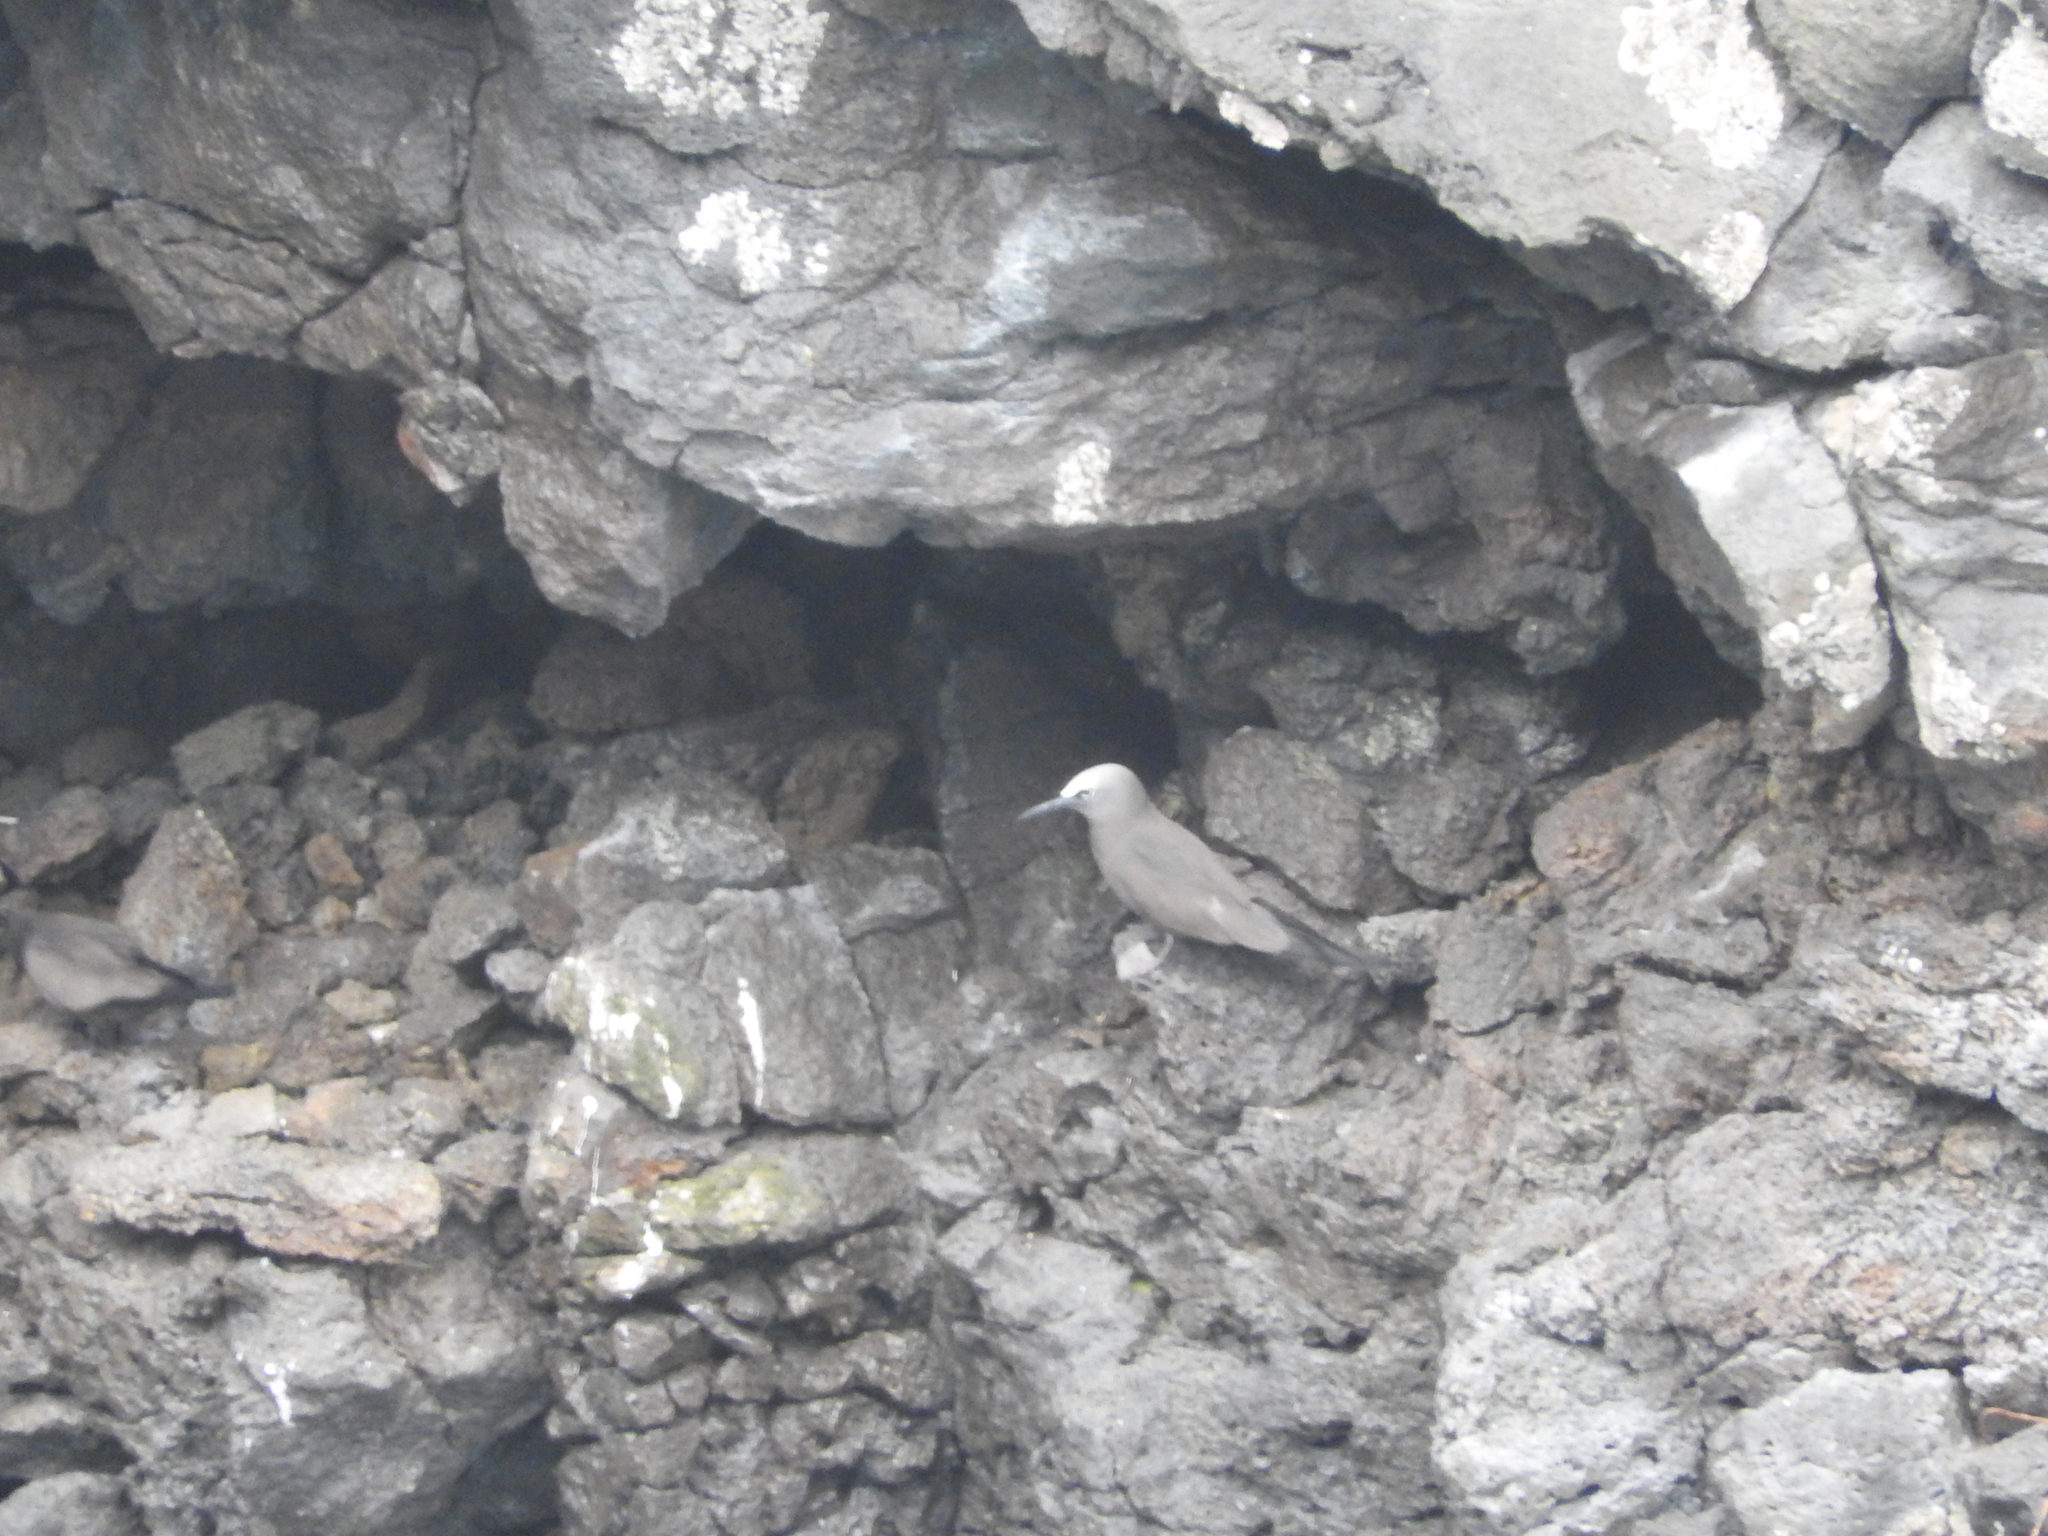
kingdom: Animalia
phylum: Chordata
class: Aves
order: Charadriiformes
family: Laridae
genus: Anous
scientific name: Anous minutus
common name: Black noddy
